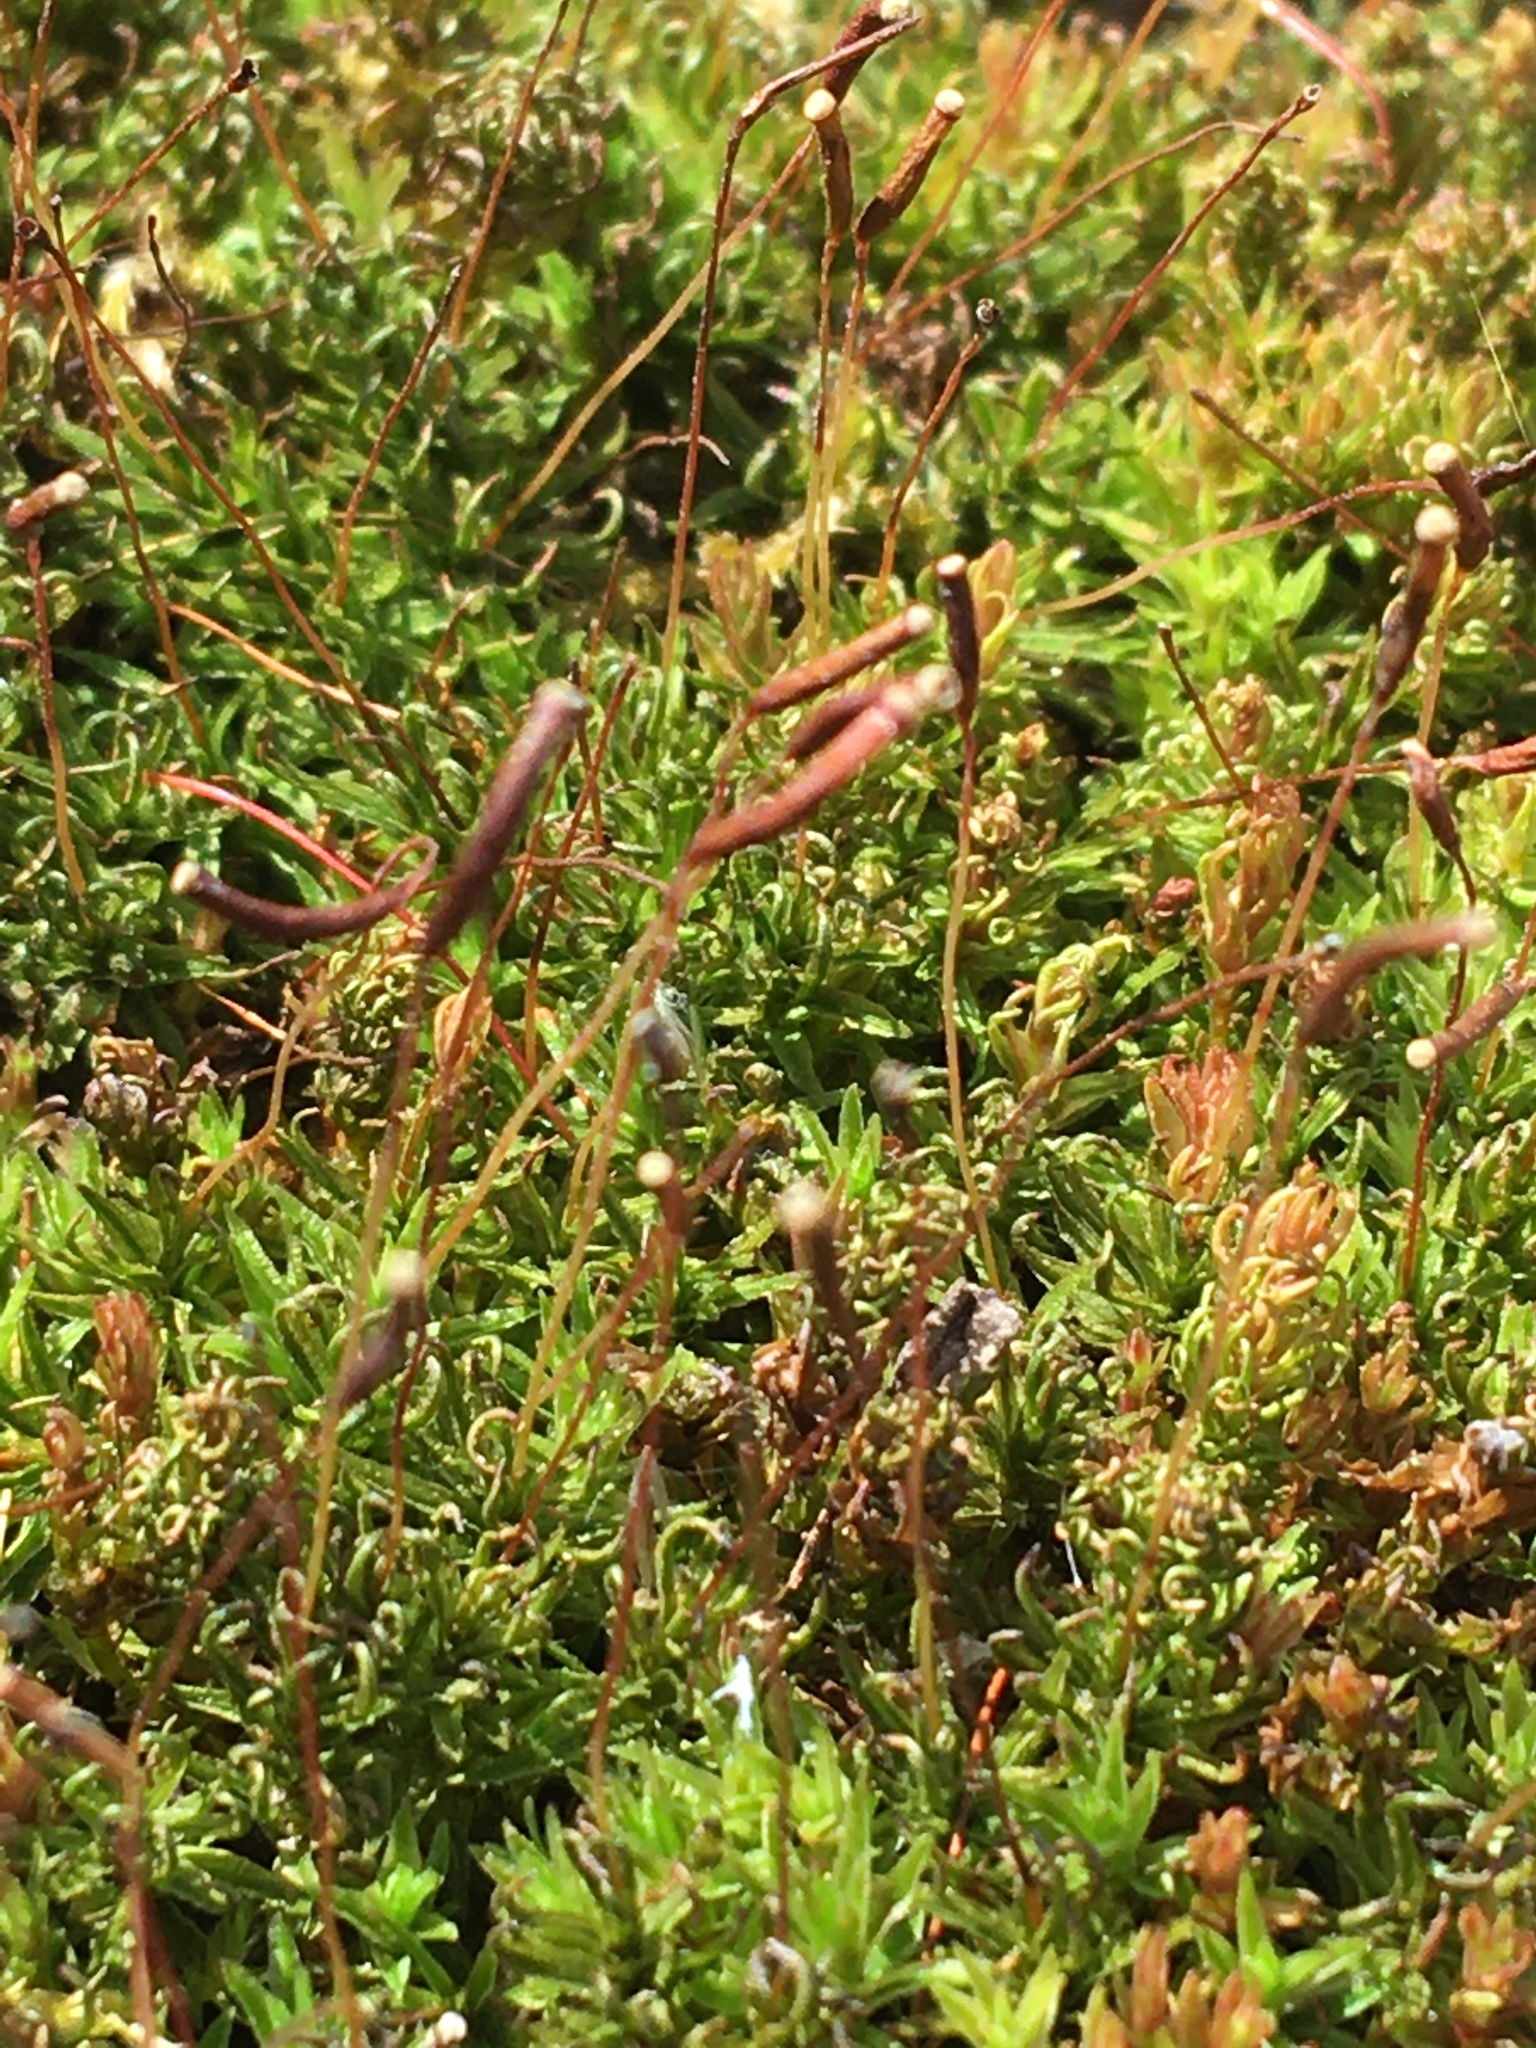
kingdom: Plantae
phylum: Bryophyta
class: Polytrichopsida
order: Polytrichales
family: Polytrichaceae
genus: Atrichum
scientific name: Atrichum angustatum
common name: Lesser smoothcap
